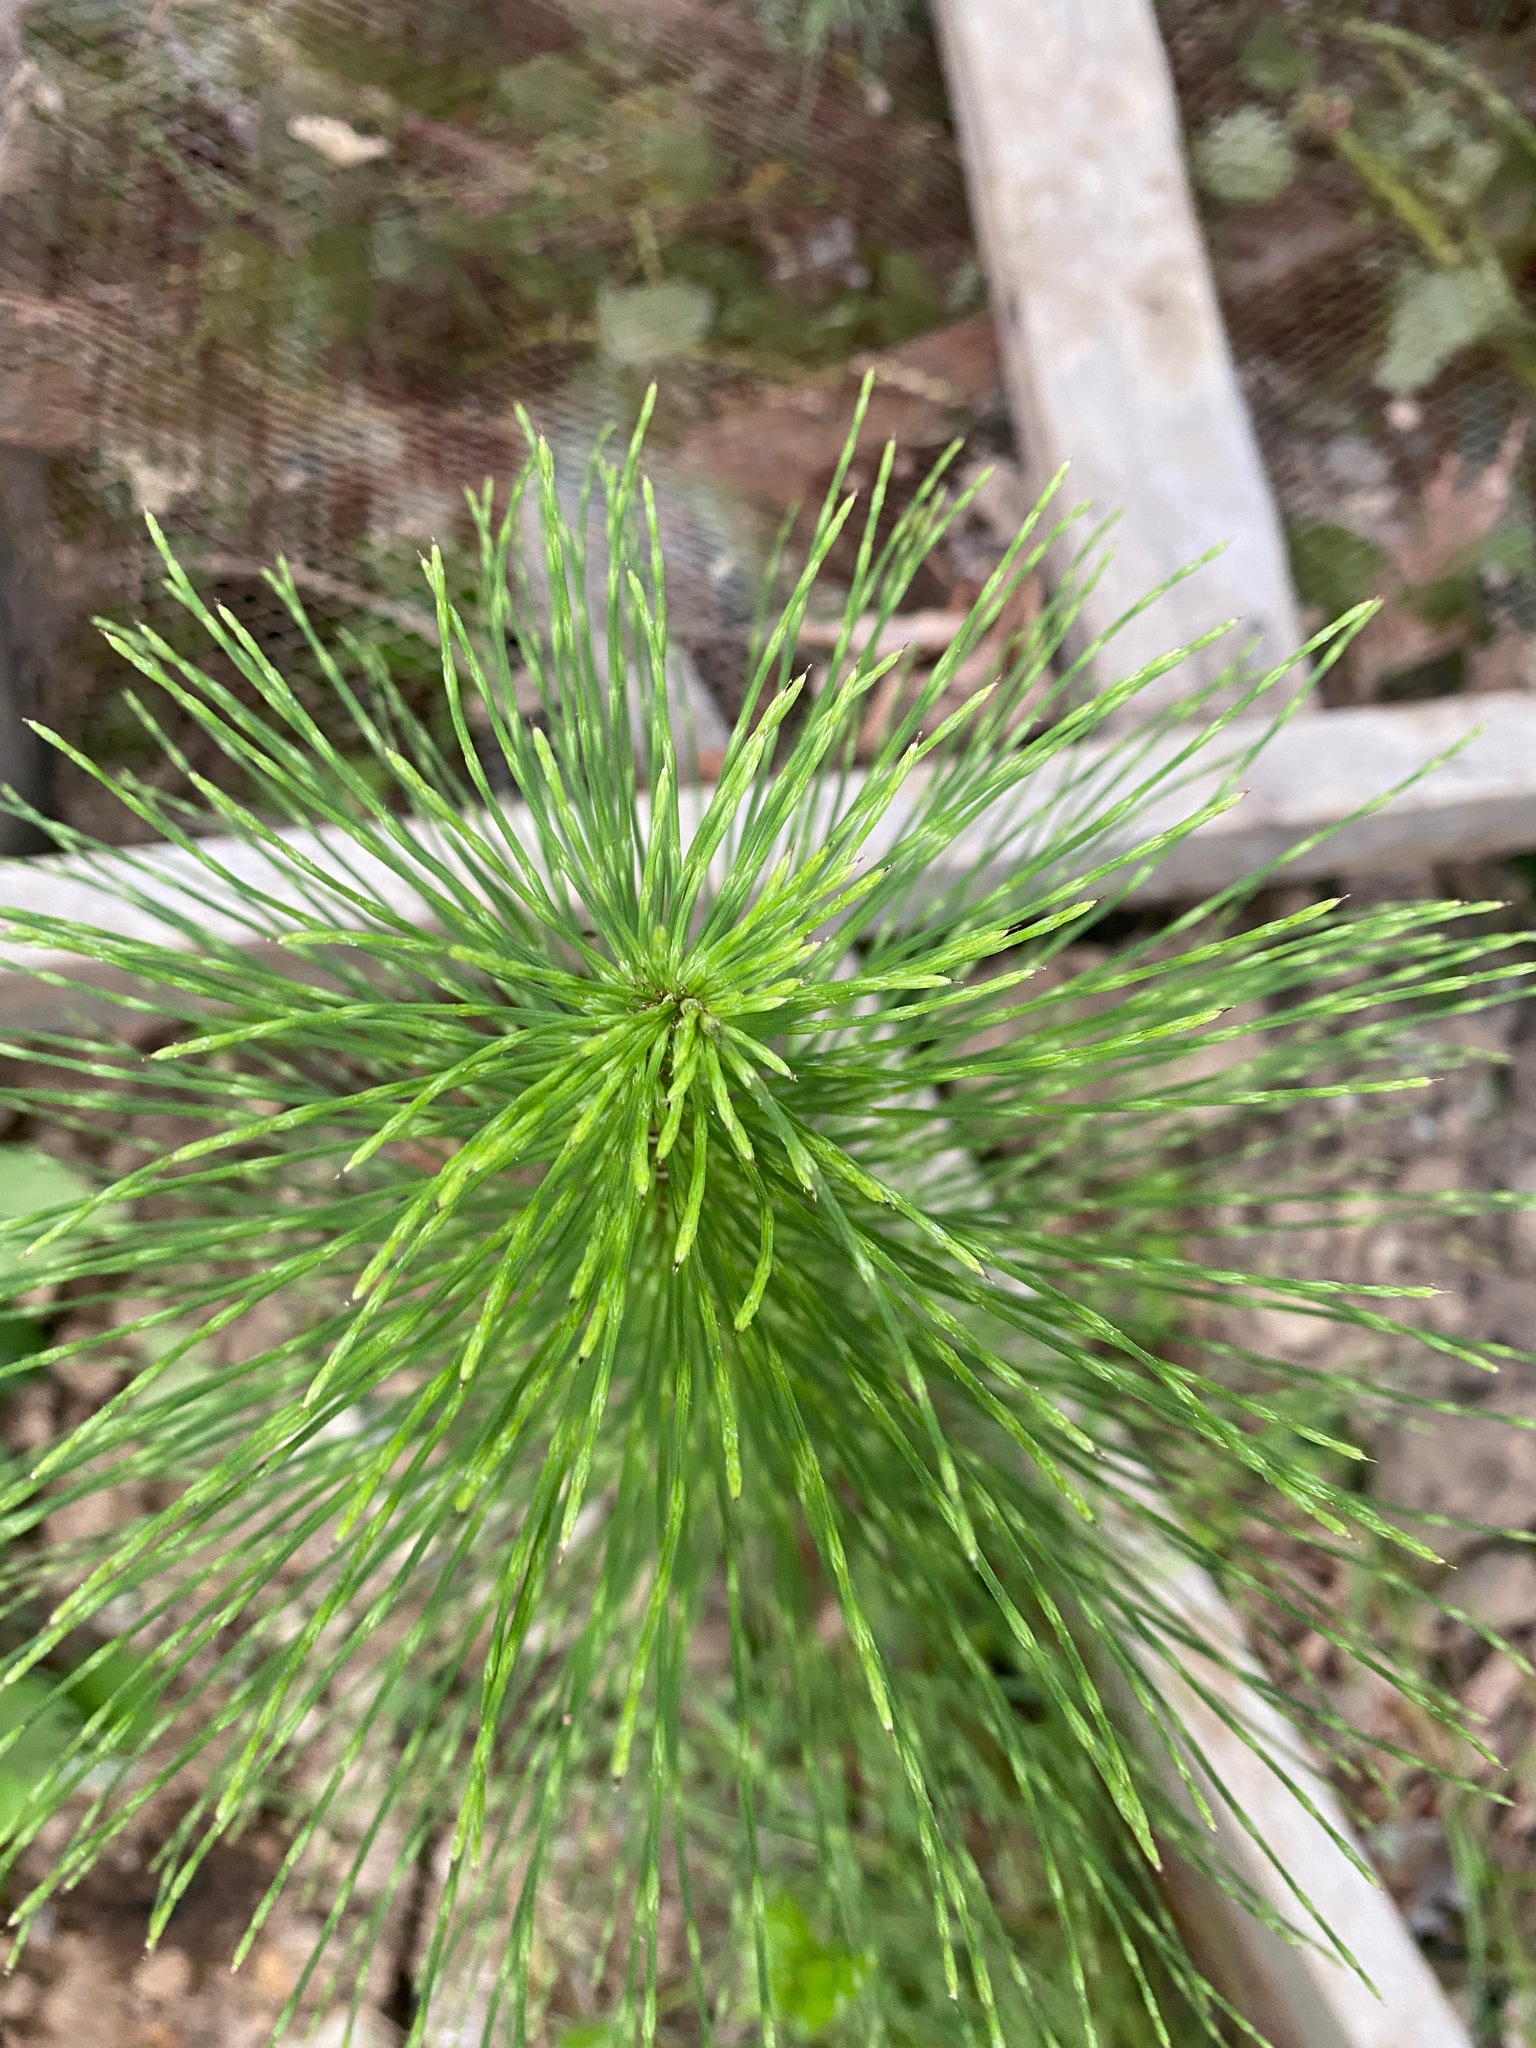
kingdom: Plantae
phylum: Tracheophyta
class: Polypodiopsida
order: Equisetales
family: Equisetaceae
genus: Equisetum
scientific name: Equisetum braunii
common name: Braun's horsetail
